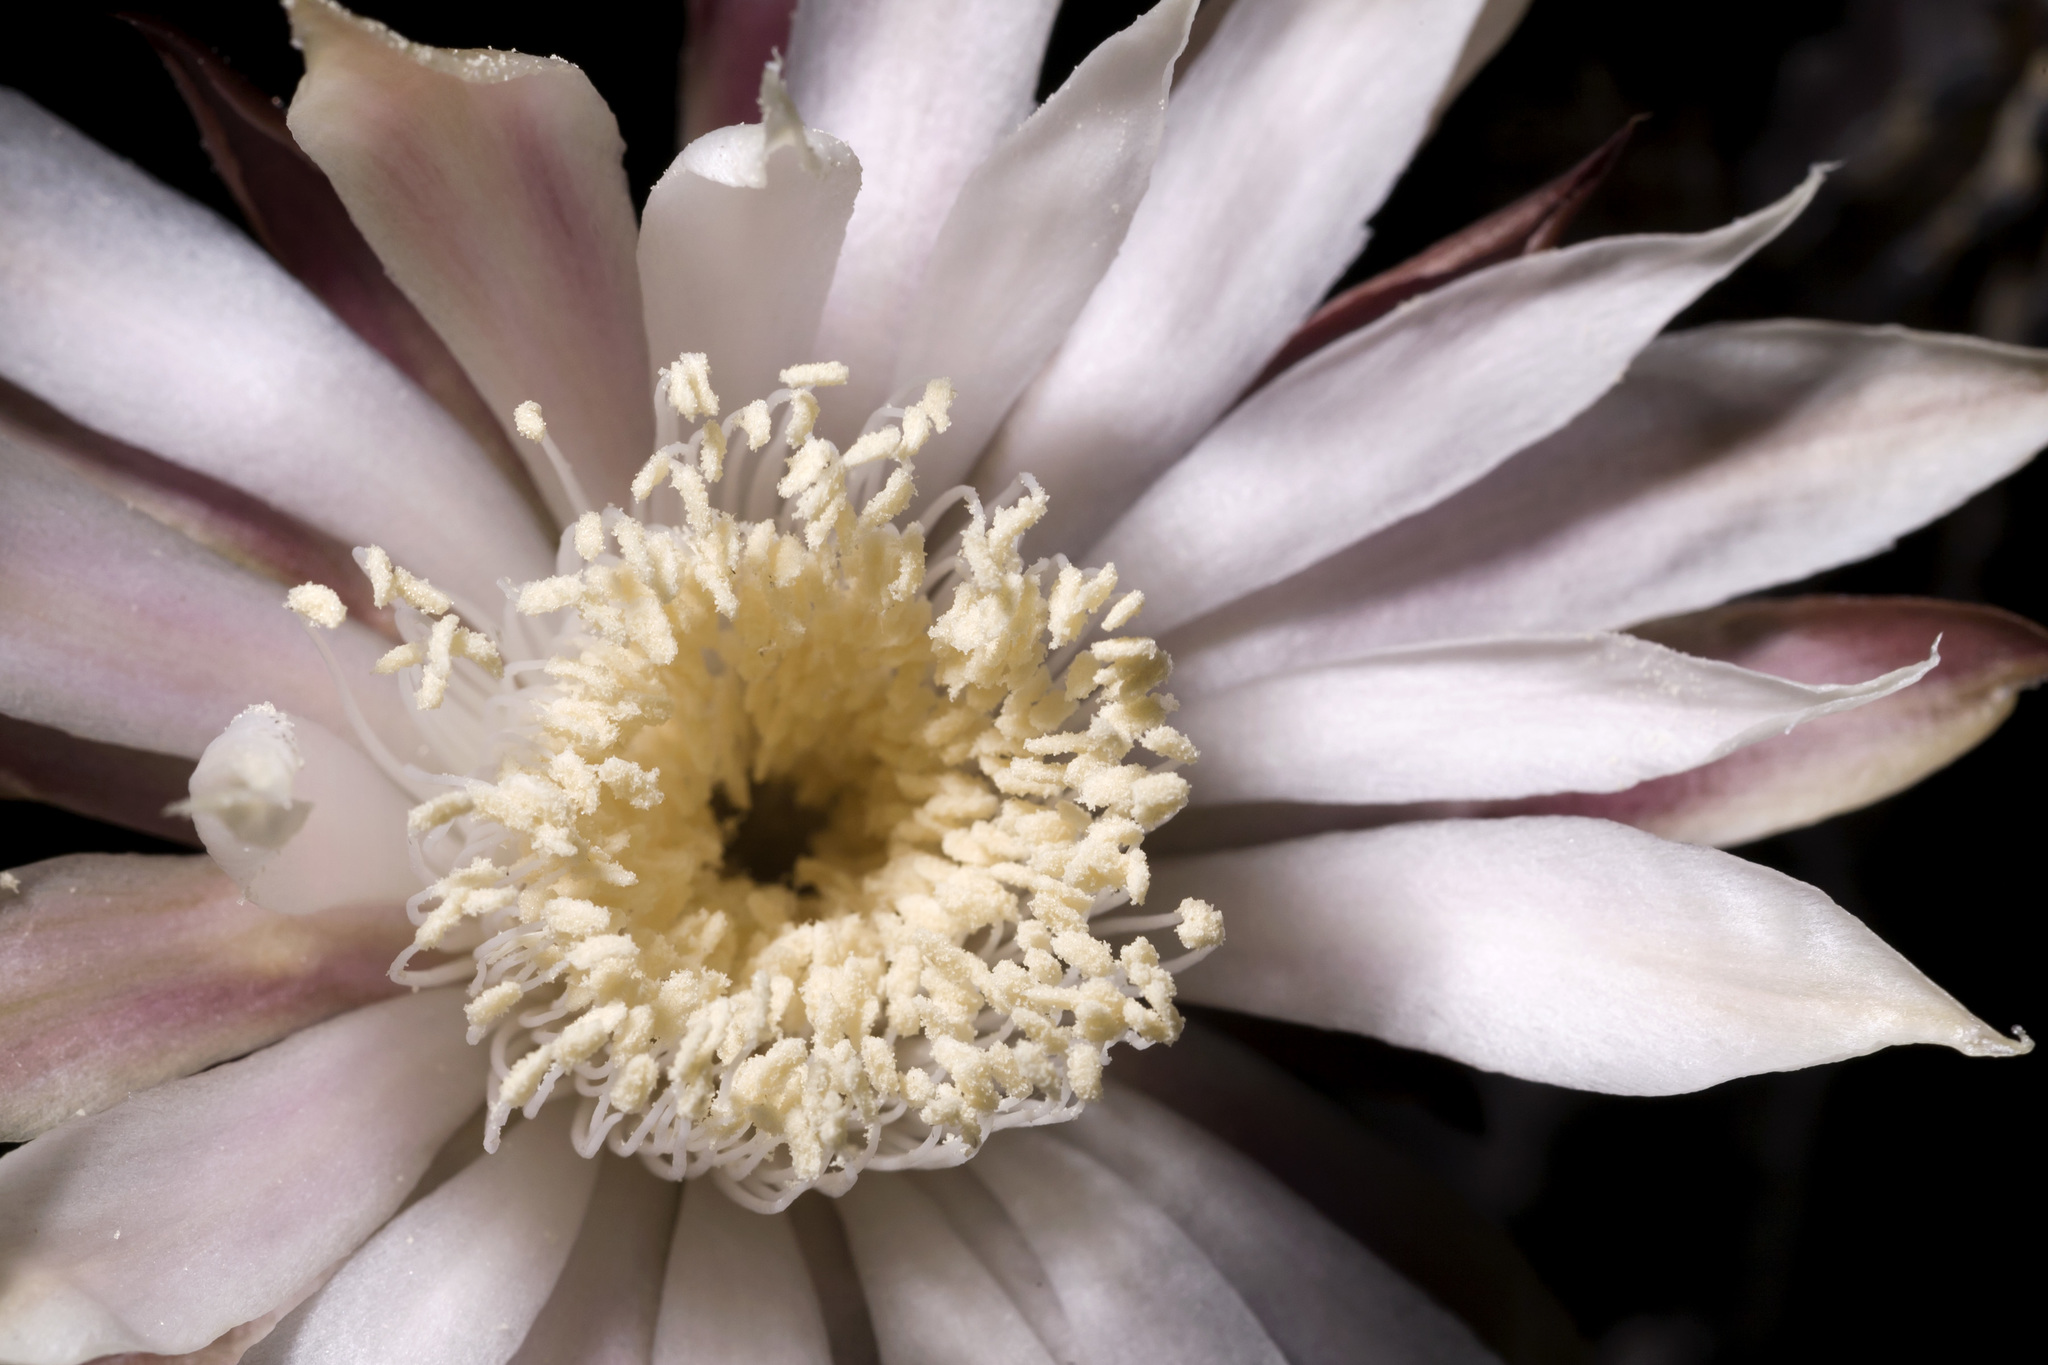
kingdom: Plantae
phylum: Tracheophyta
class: Magnoliopsida
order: Caryophyllales
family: Cactaceae
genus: Peniocereus
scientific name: Peniocereus greggii
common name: Desert night-blooming cereus
